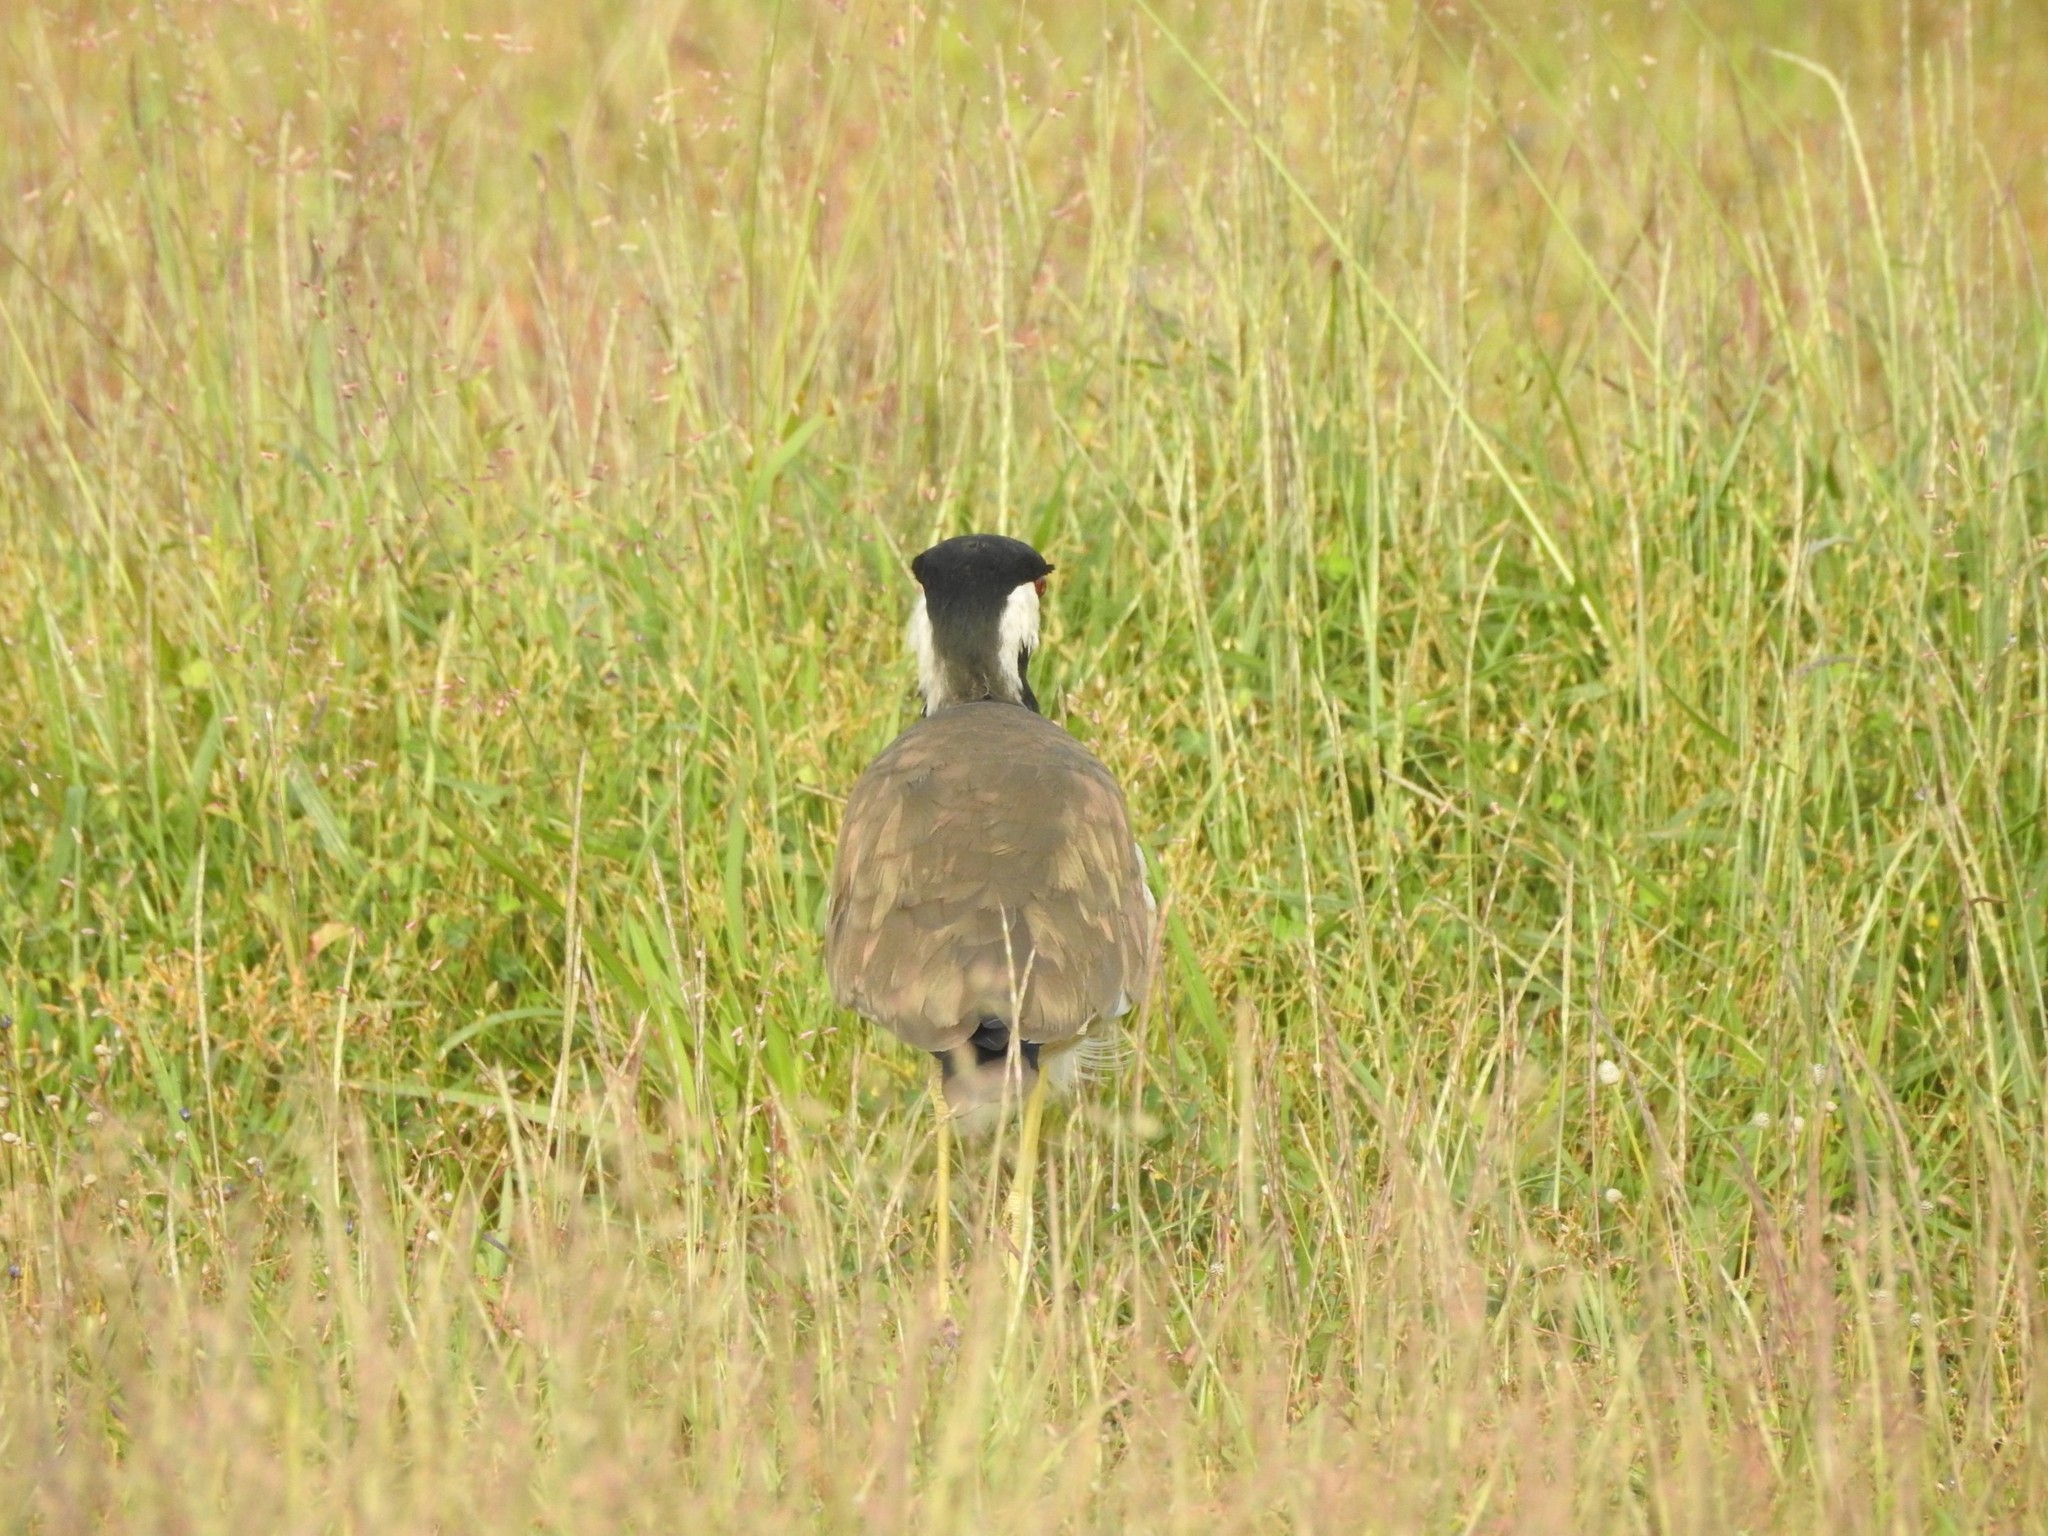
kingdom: Animalia
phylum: Chordata
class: Aves
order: Charadriiformes
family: Charadriidae
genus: Vanellus
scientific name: Vanellus indicus
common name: Red-wattled lapwing
